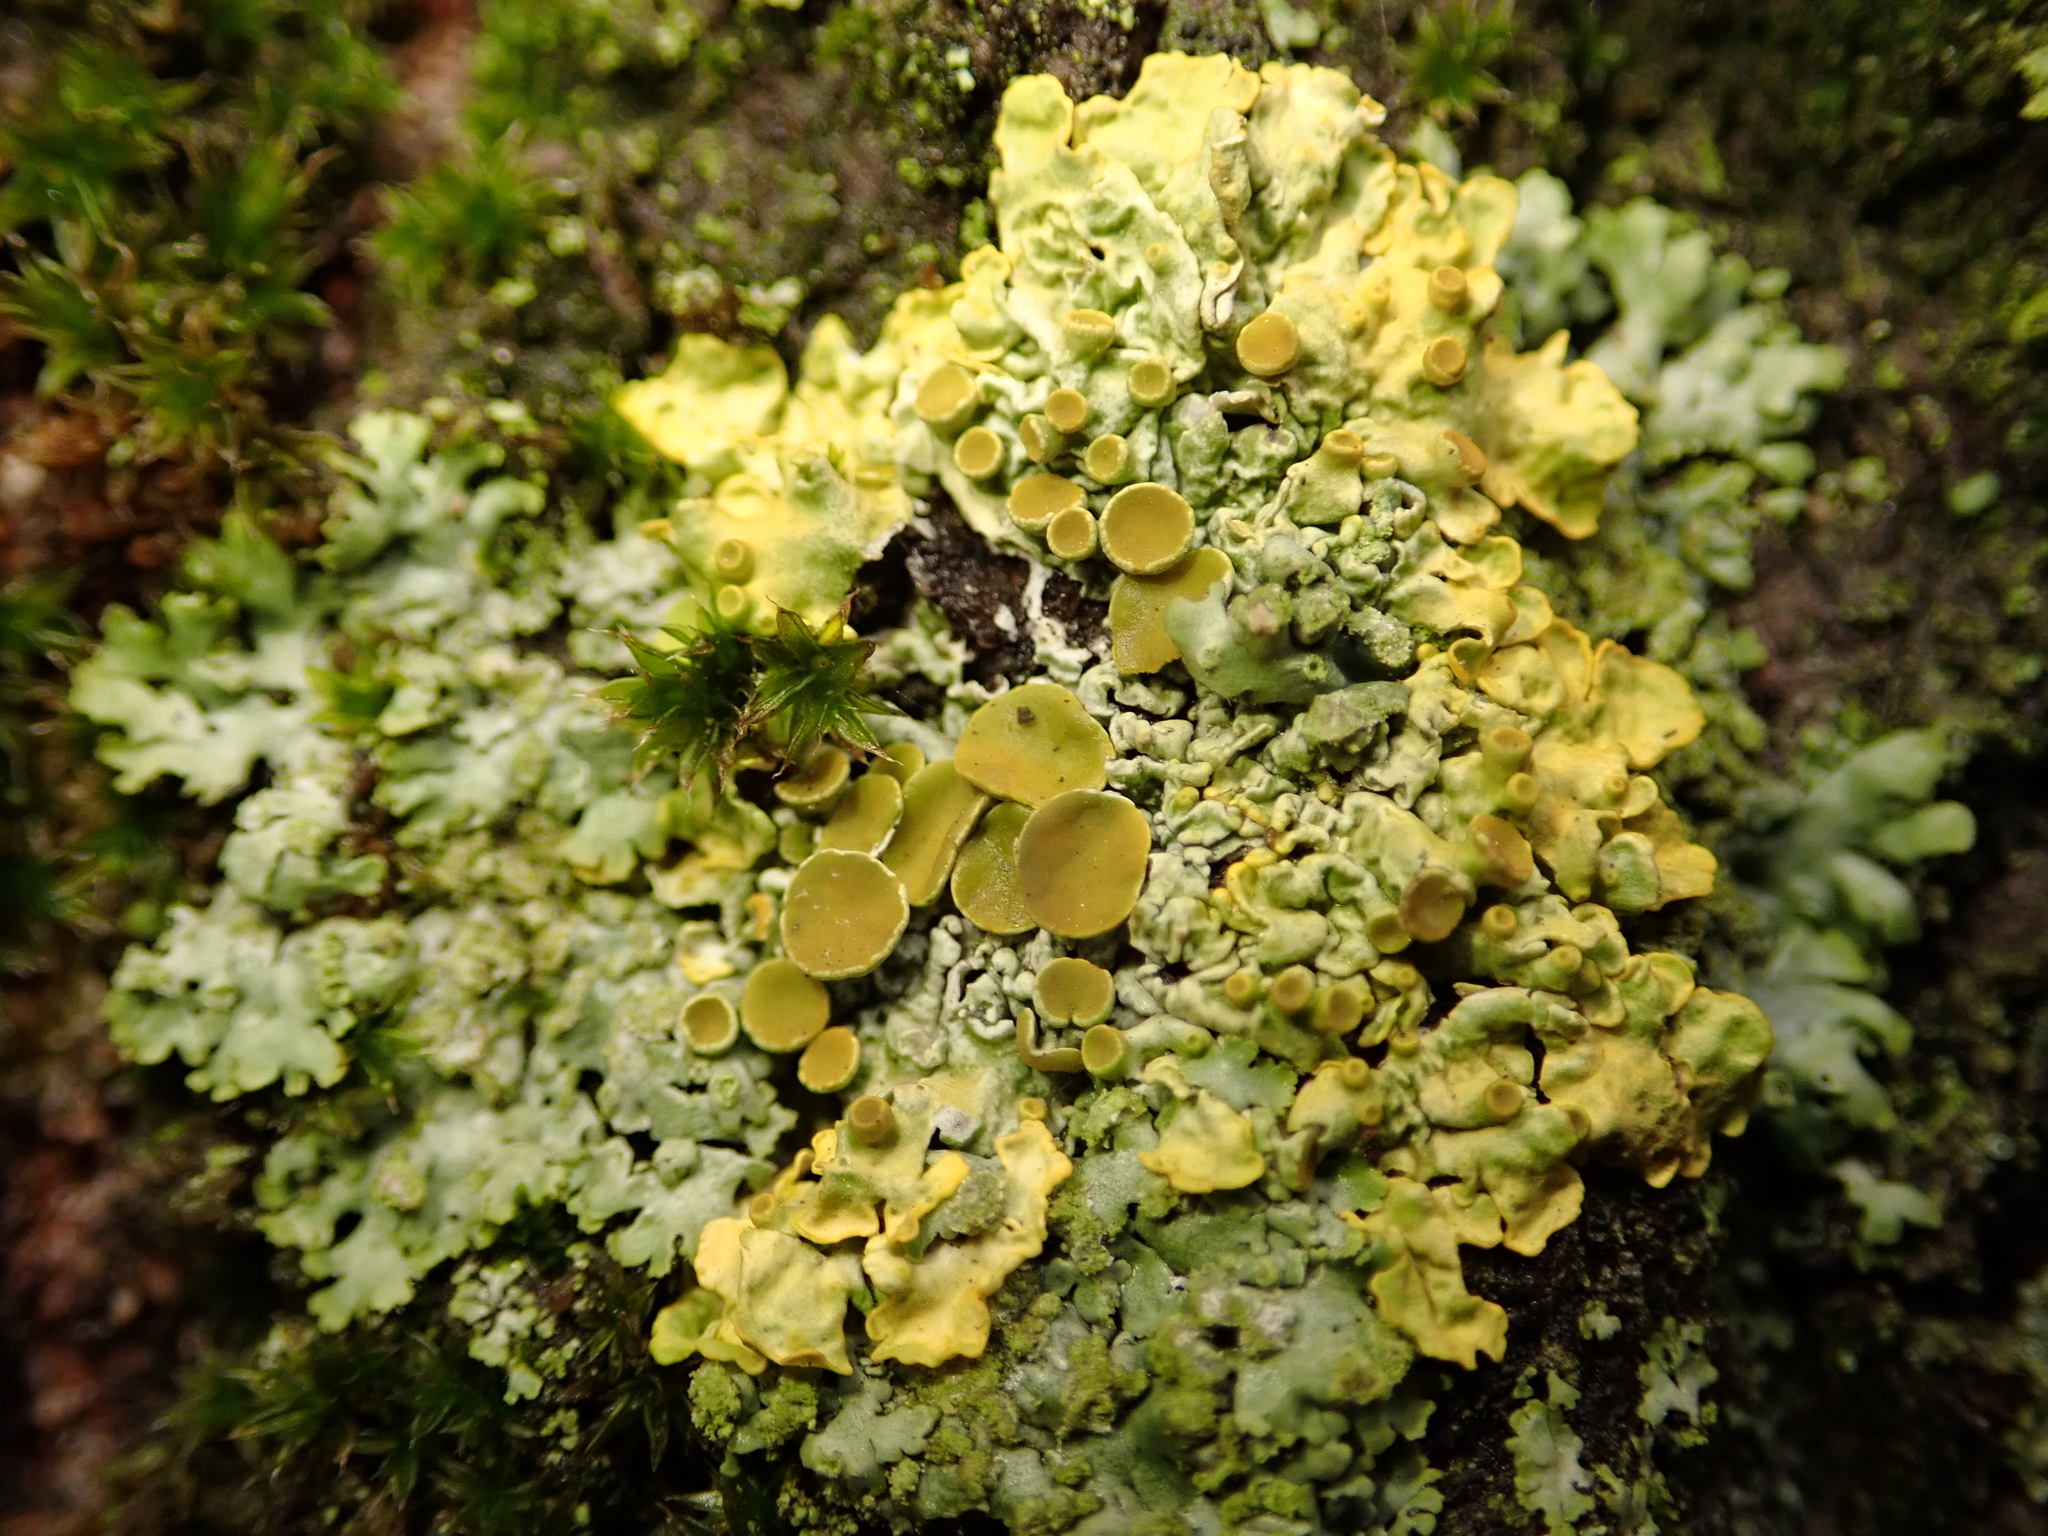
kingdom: Fungi
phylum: Ascomycota
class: Lecanoromycetes
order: Teloschistales
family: Teloschistaceae
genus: Xanthoria
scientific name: Xanthoria parietina
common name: Common orange lichen
